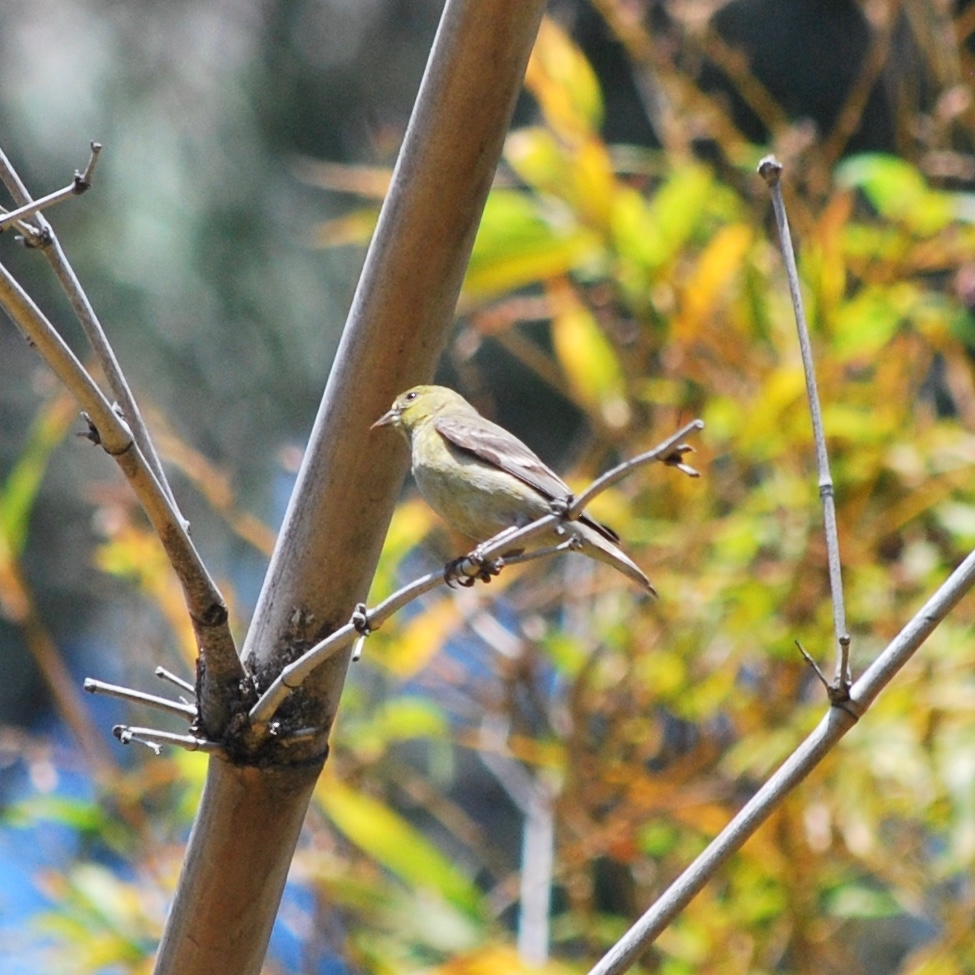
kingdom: Animalia
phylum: Chordata
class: Aves
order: Passeriformes
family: Fringillidae
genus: Spinus
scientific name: Spinus psaltria
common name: Lesser goldfinch
